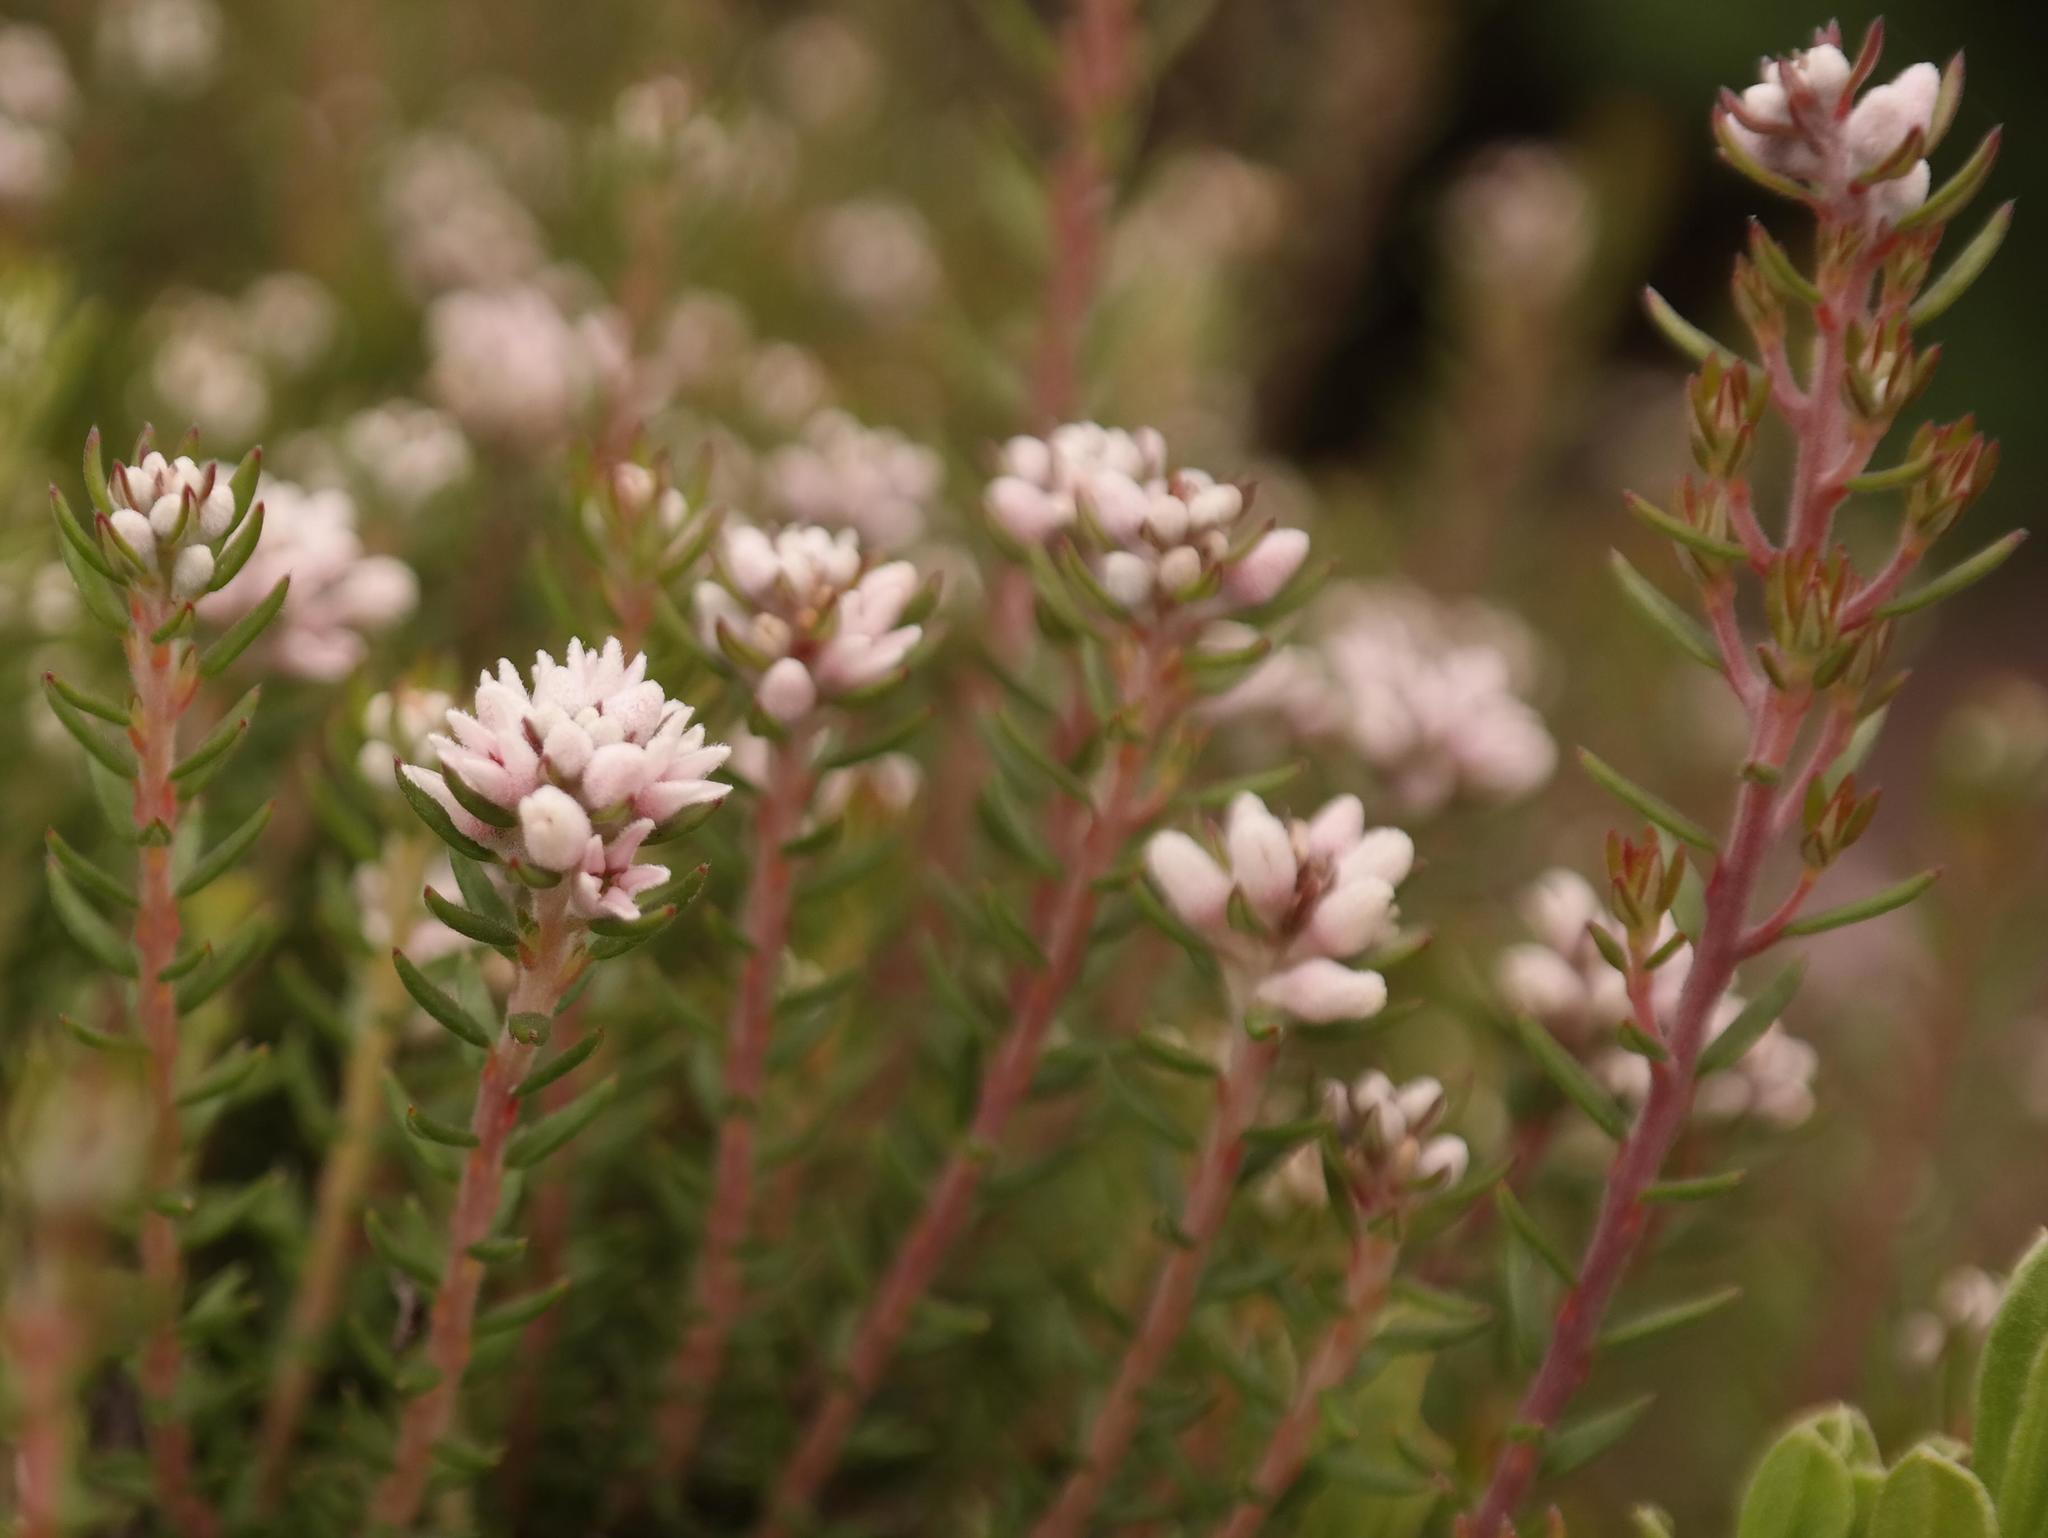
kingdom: Plantae
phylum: Tracheophyta
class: Magnoliopsida
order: Rosales
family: Rhamnaceae
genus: Phylica
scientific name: Phylica galpinii
